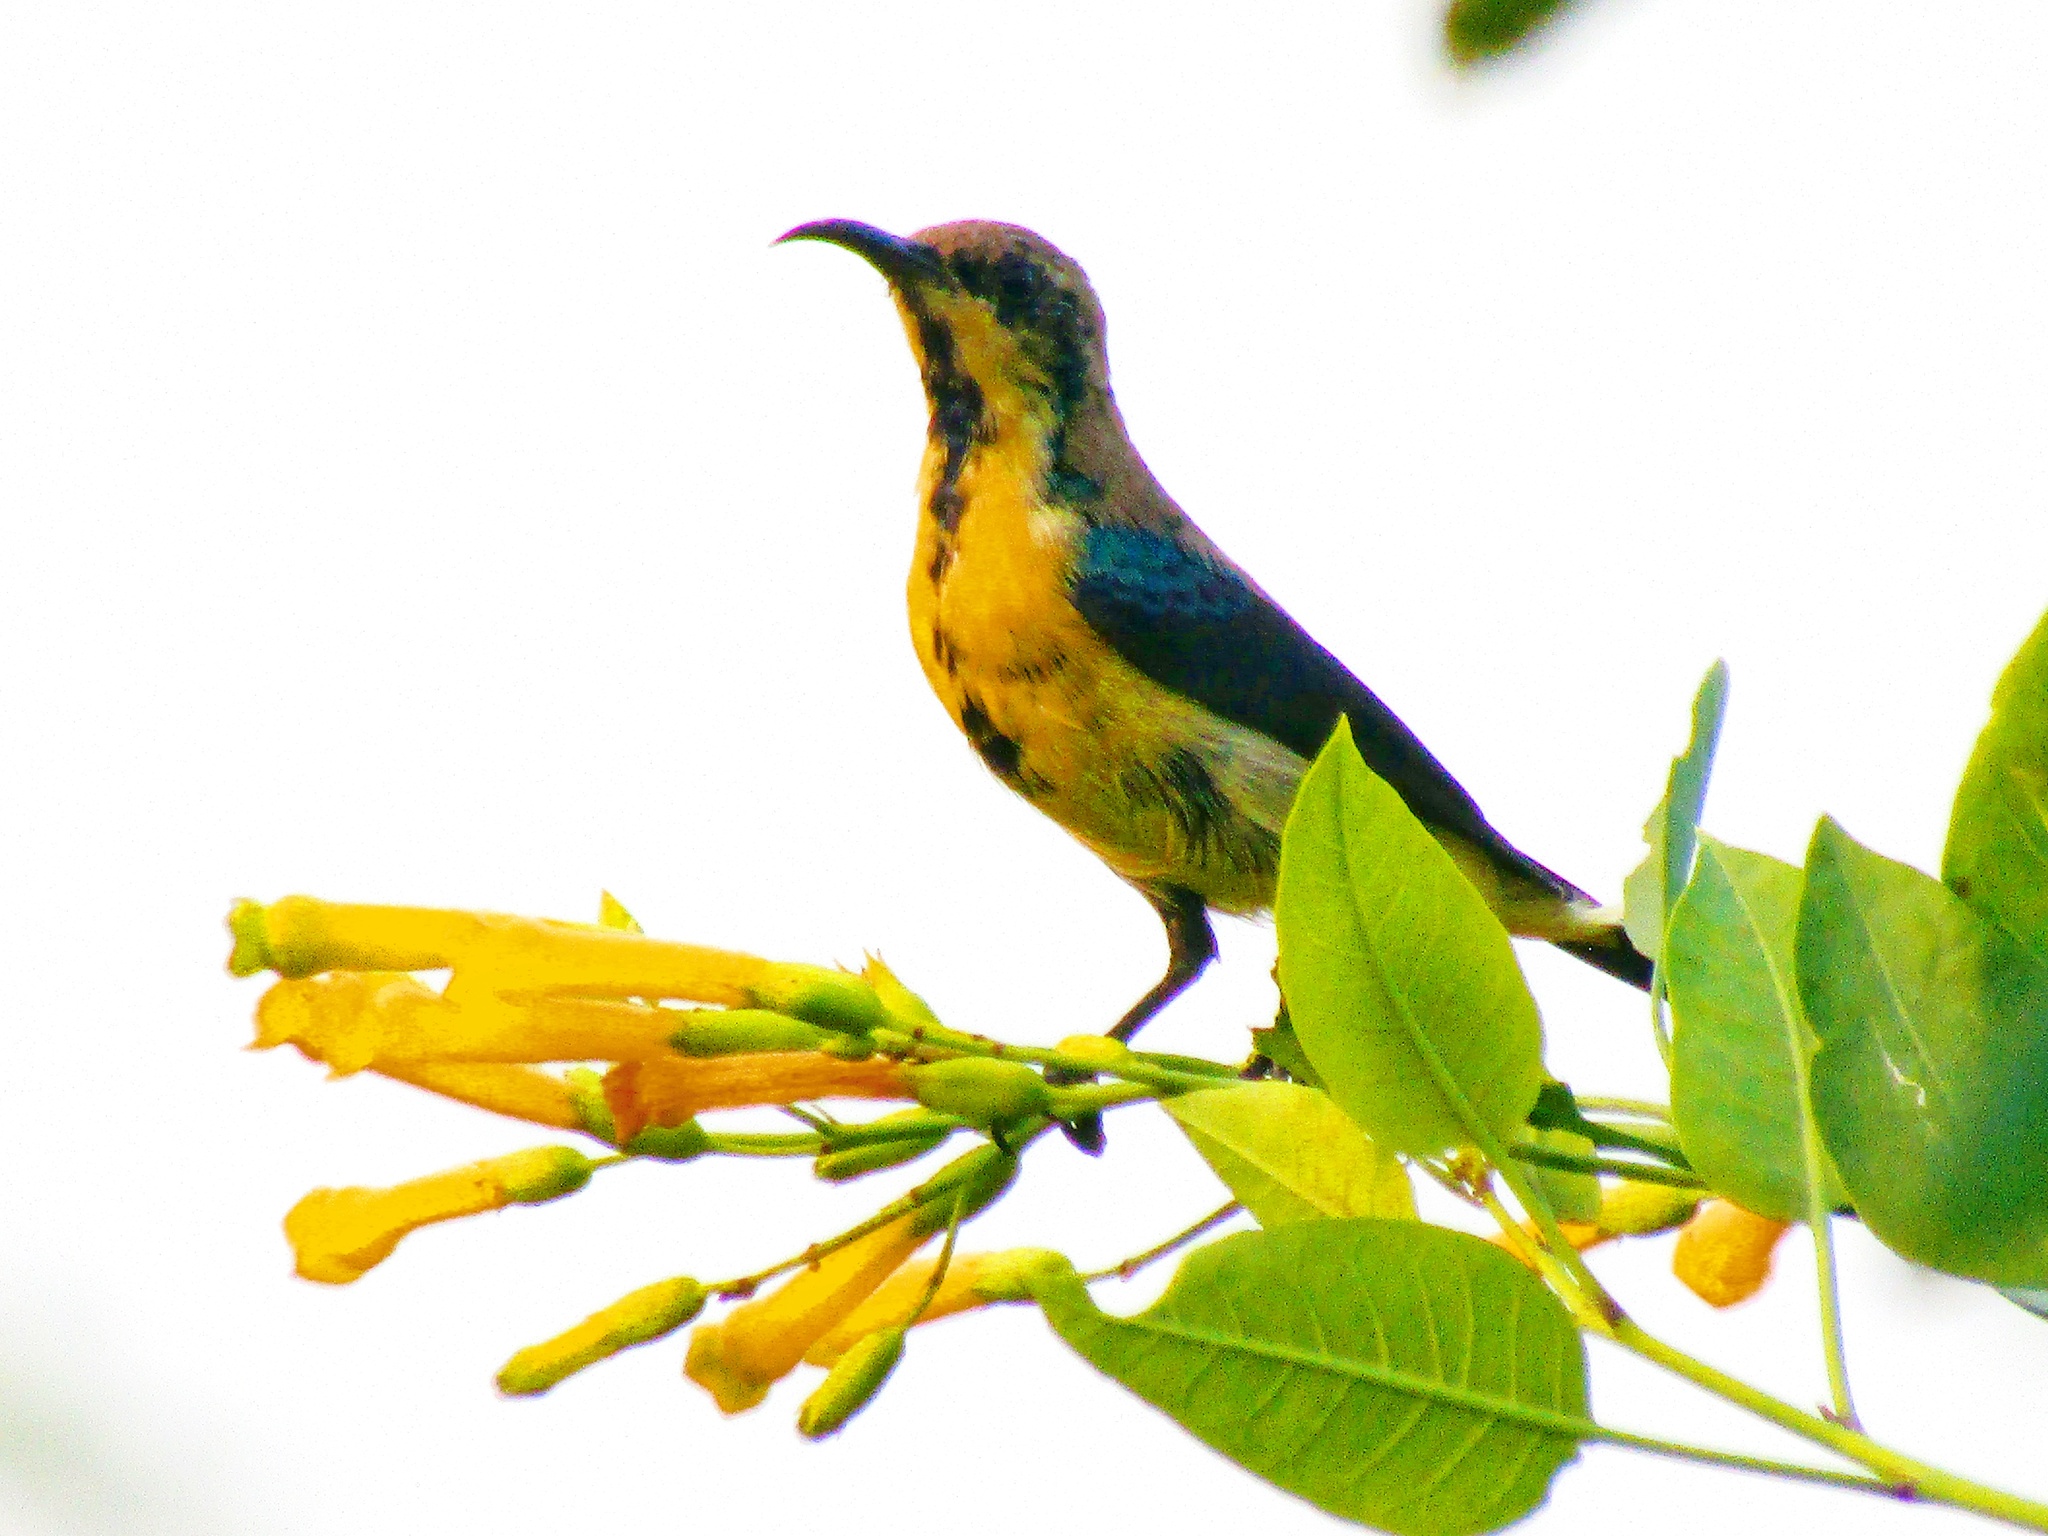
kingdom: Animalia
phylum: Chordata
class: Aves
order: Passeriformes
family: Nectariniidae
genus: Cinnyris
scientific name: Cinnyris asiaticus
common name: Purple sunbird
